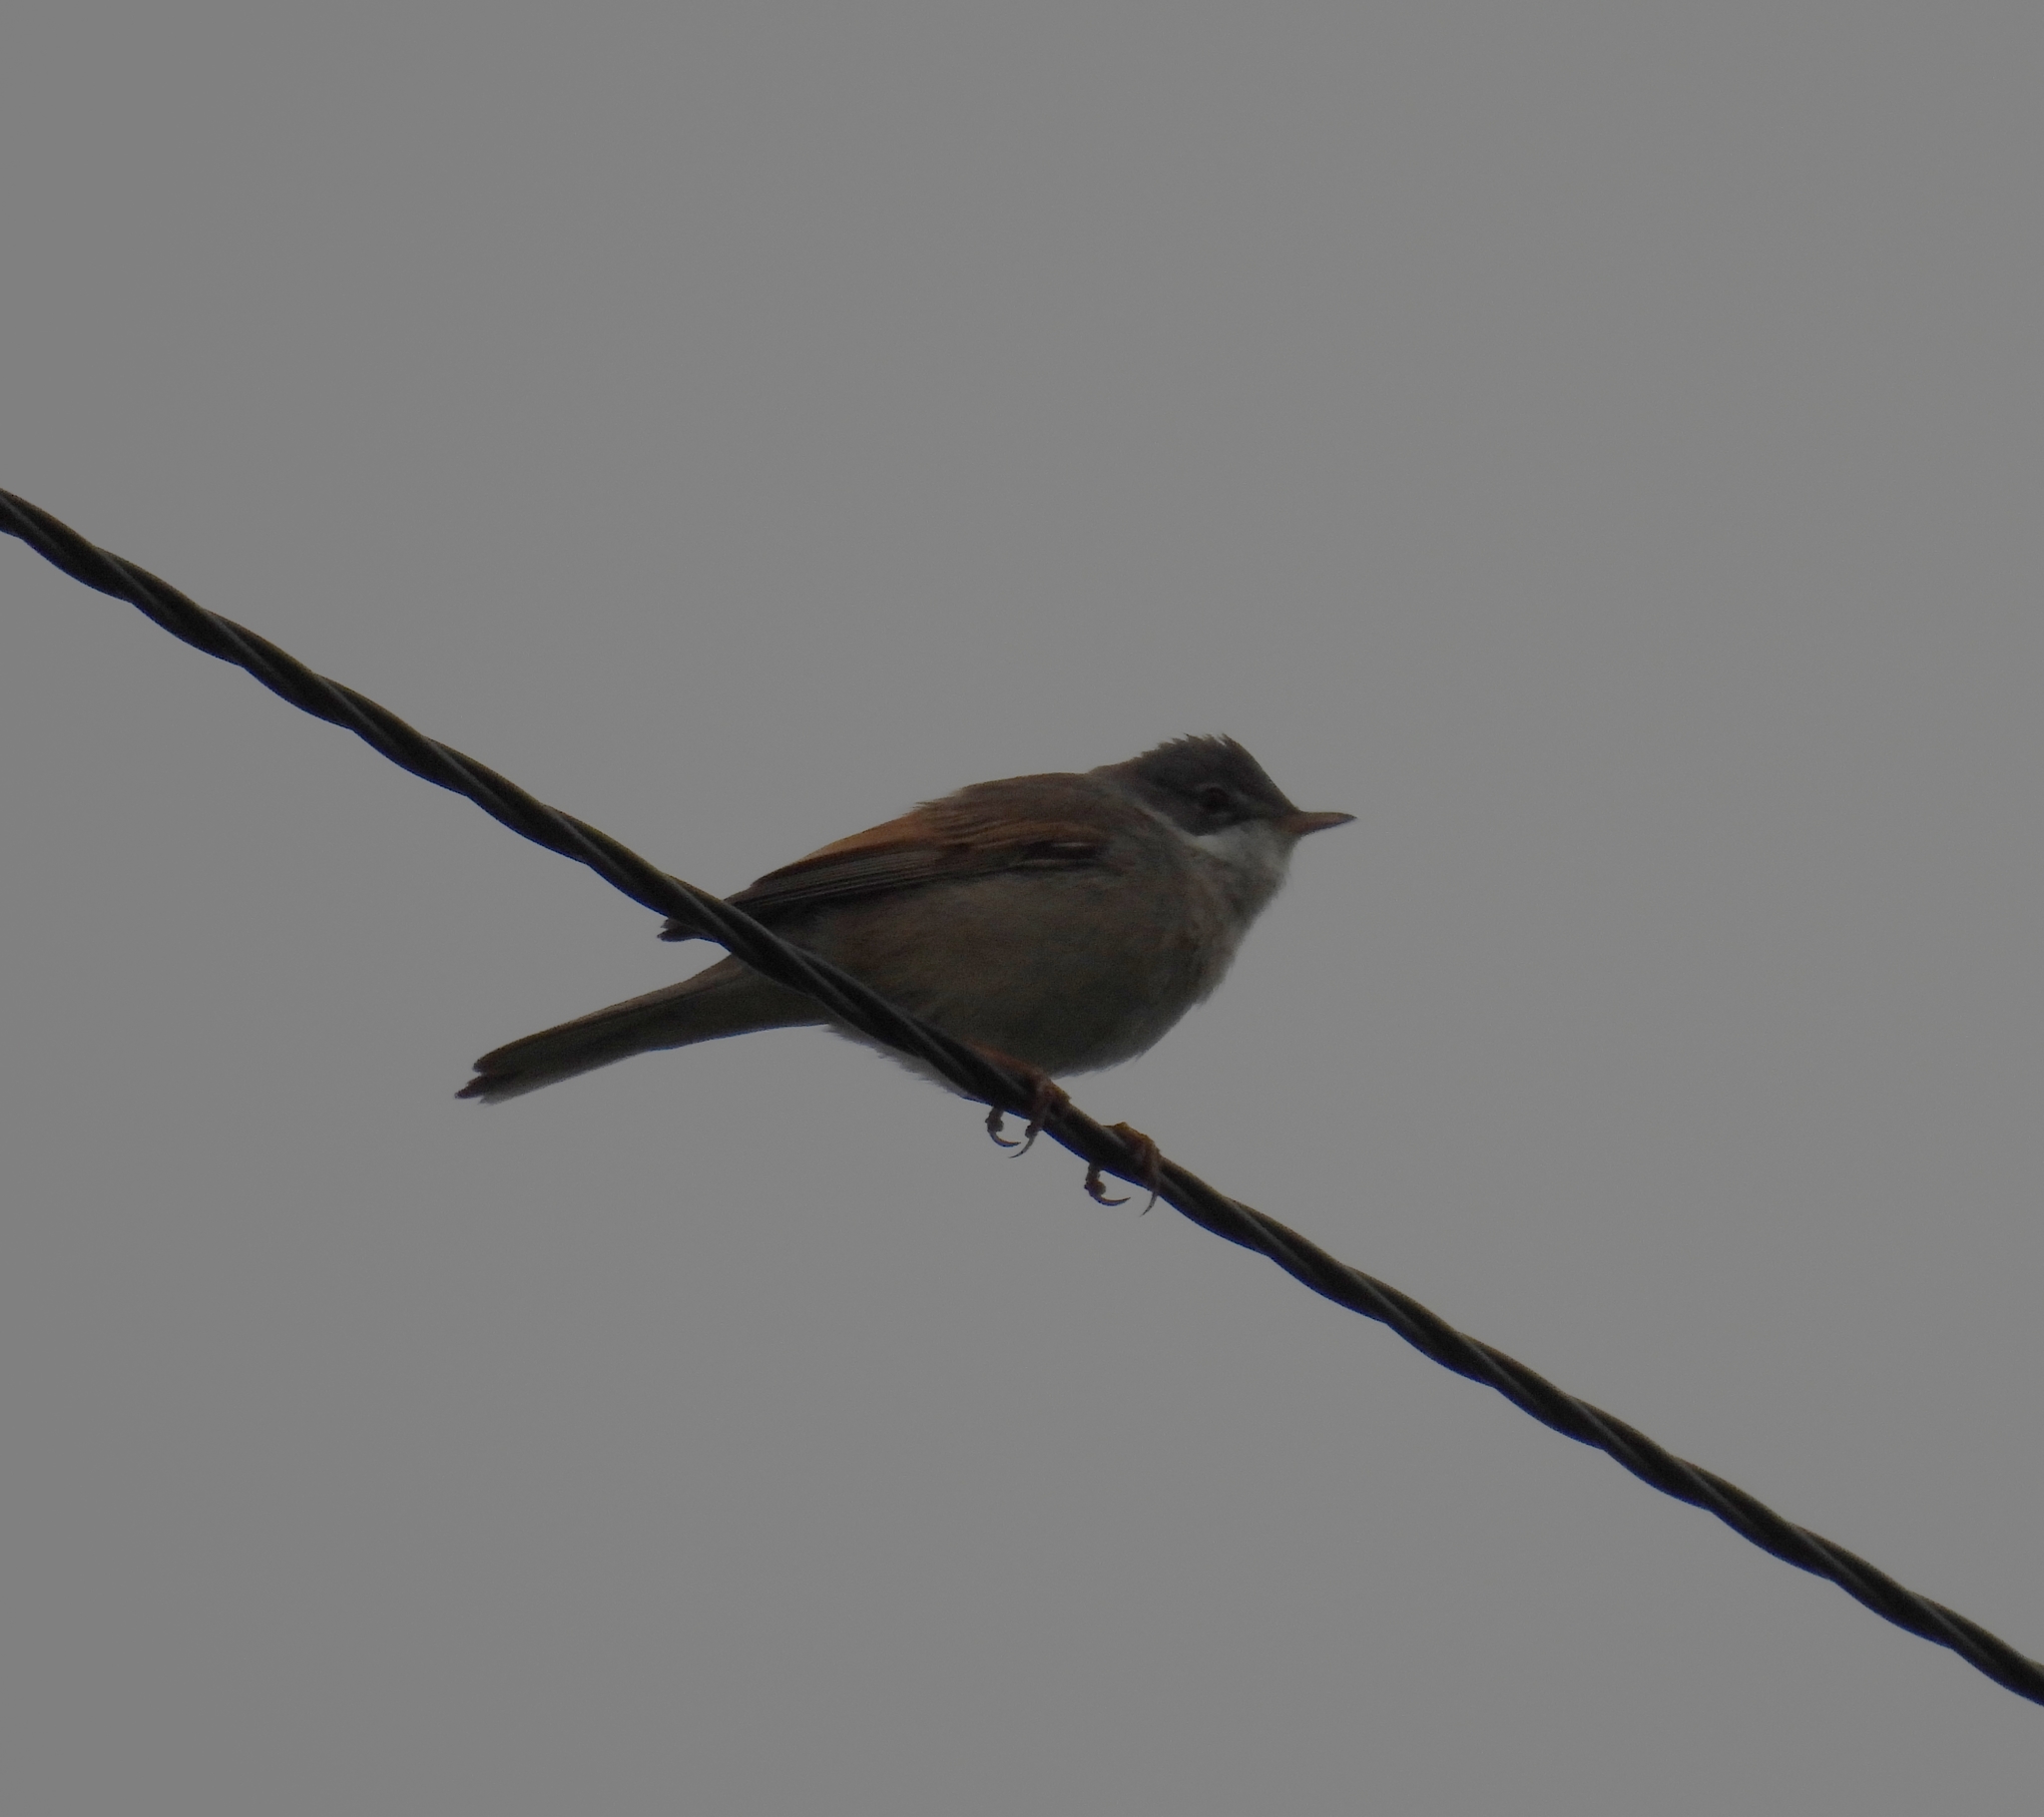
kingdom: Animalia
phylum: Chordata
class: Aves
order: Passeriformes
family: Sylviidae
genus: Sylvia
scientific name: Sylvia communis
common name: Common whitethroat
